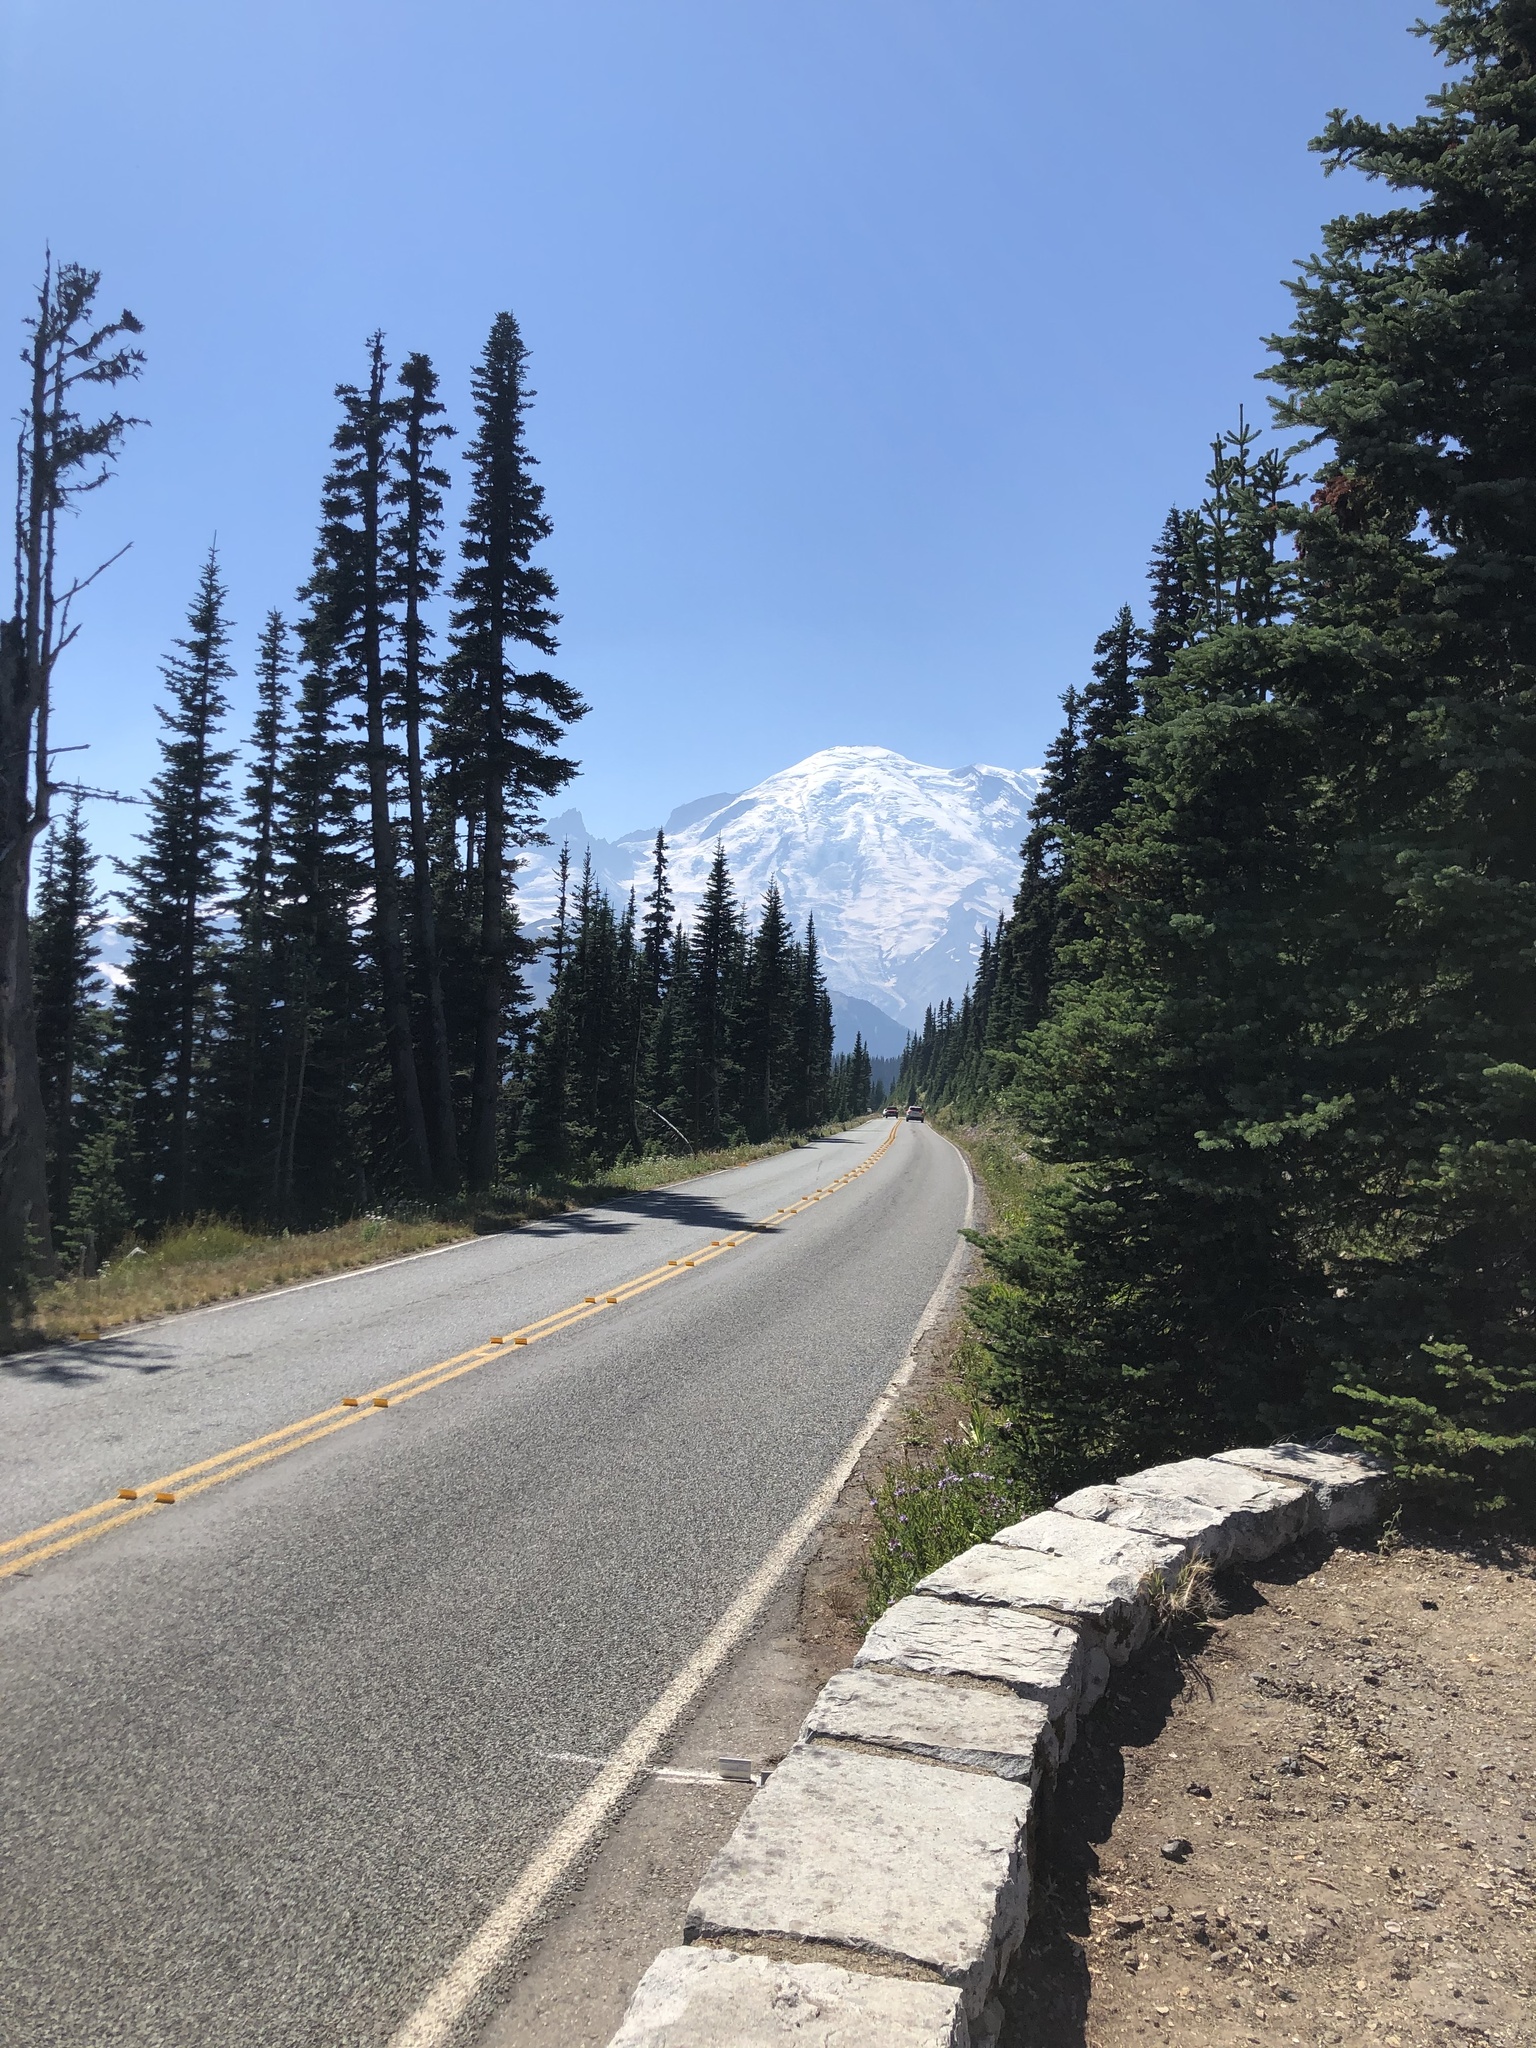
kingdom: Plantae
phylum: Tracheophyta
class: Pinopsida
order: Pinales
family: Pinaceae
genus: Abies
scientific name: Abies lasiocarpa
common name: Subalpine fir
